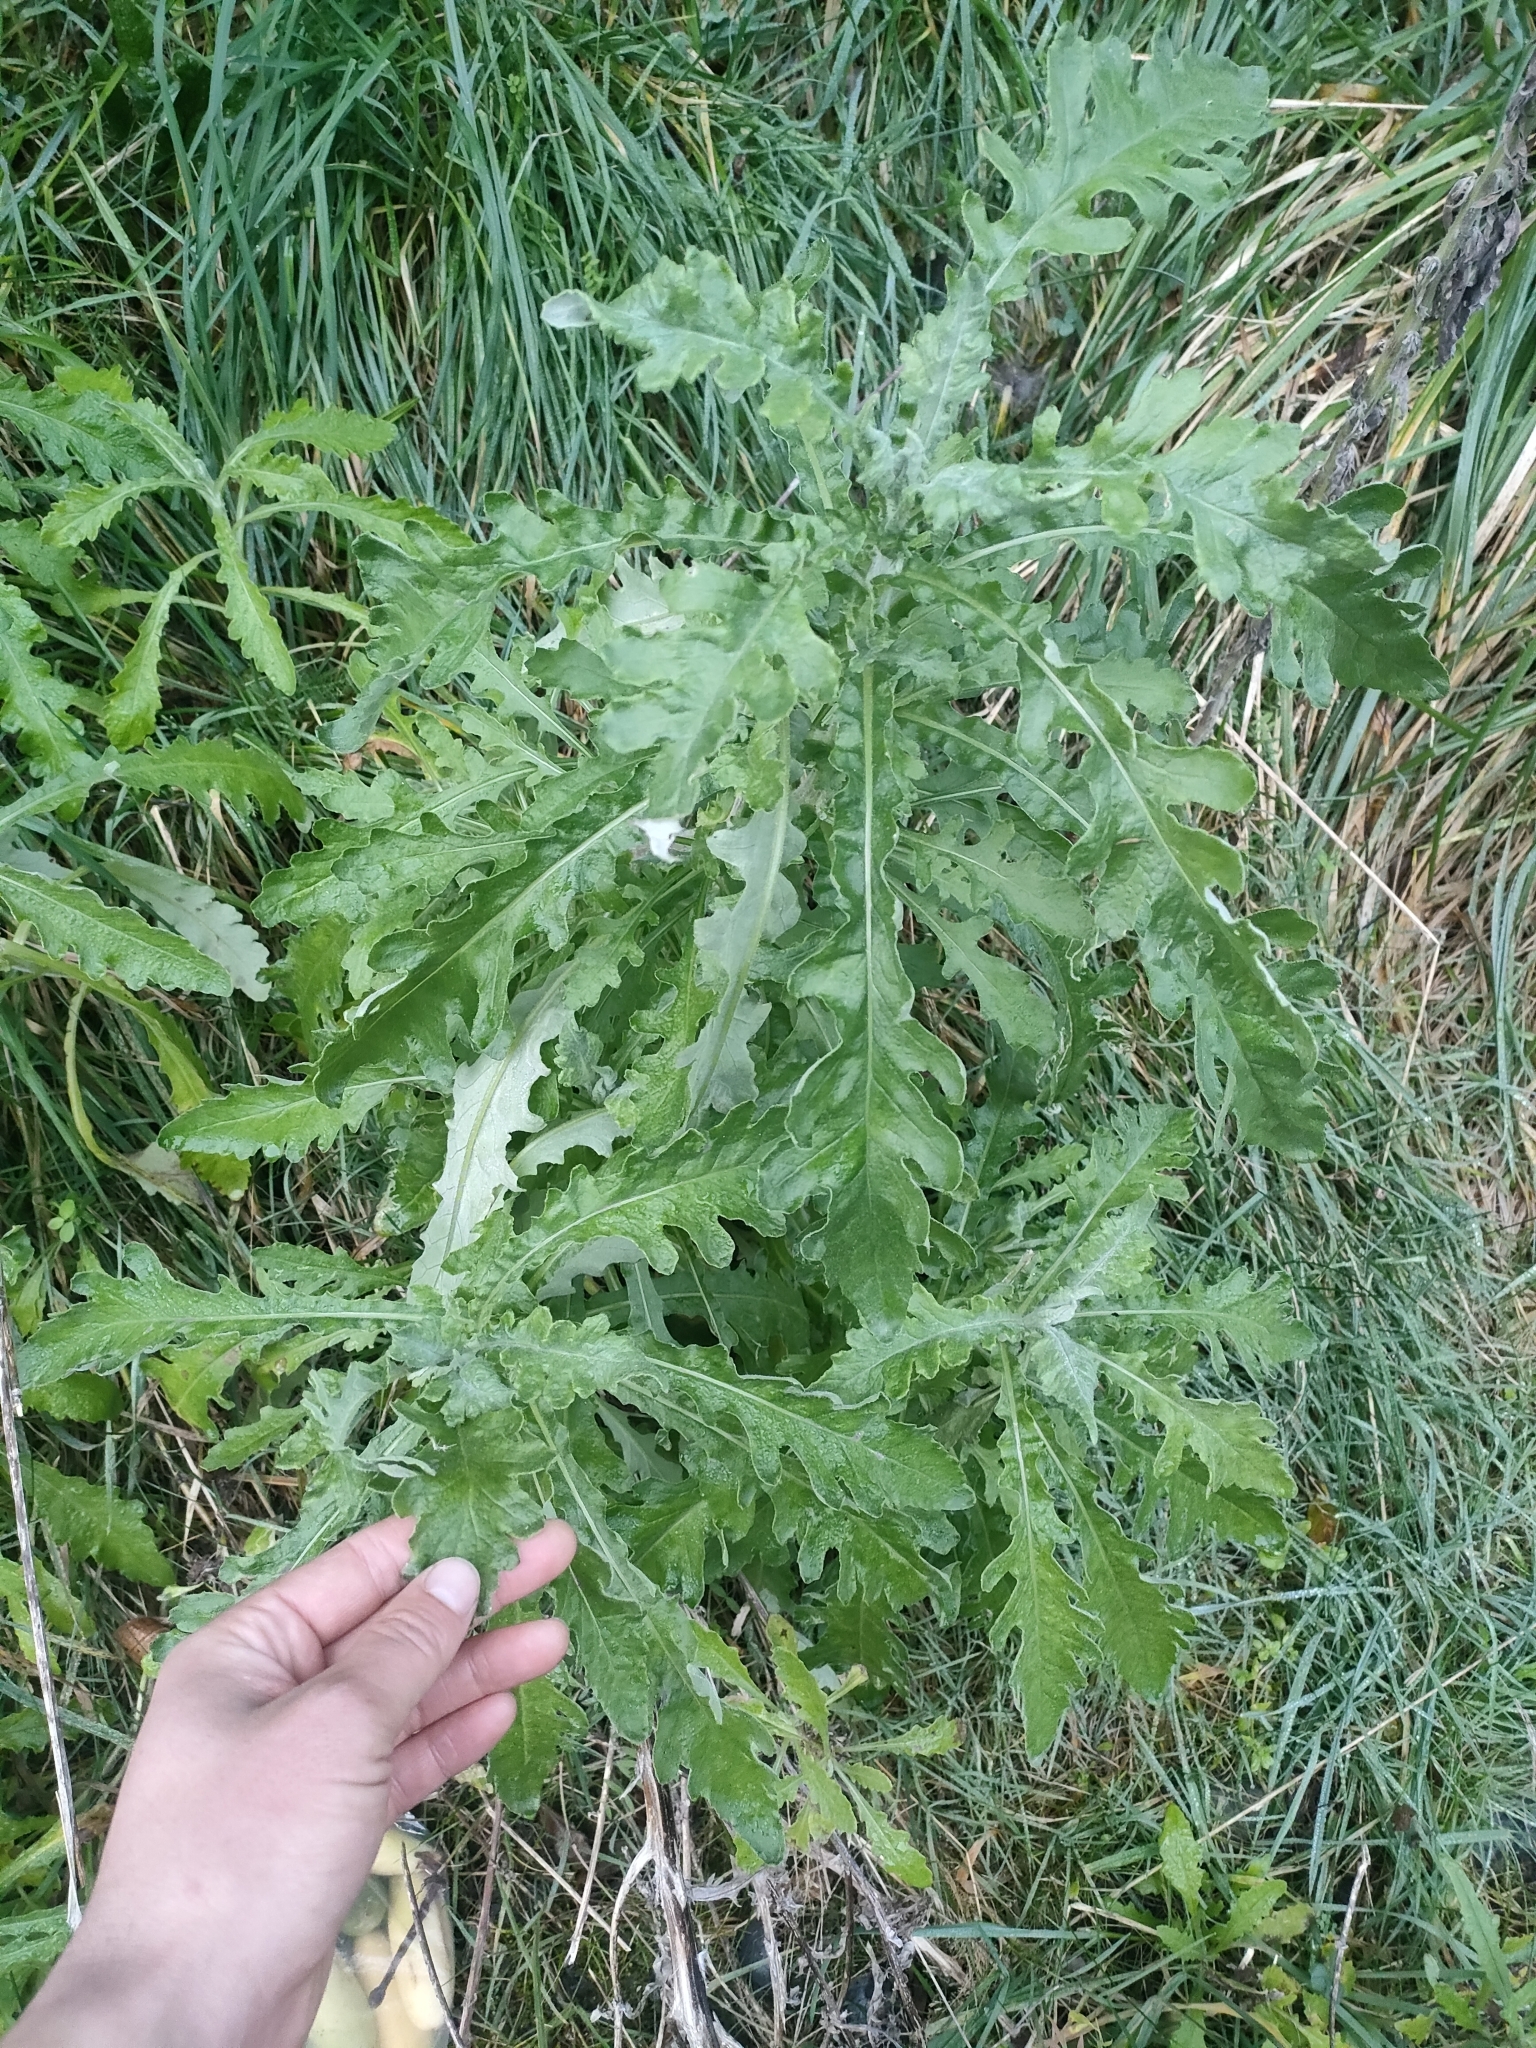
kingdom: Plantae
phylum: Tracheophyta
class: Magnoliopsida
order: Asterales
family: Asteraceae
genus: Senecio
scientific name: Senecio glomeratus
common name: Cutleaf burnweed
